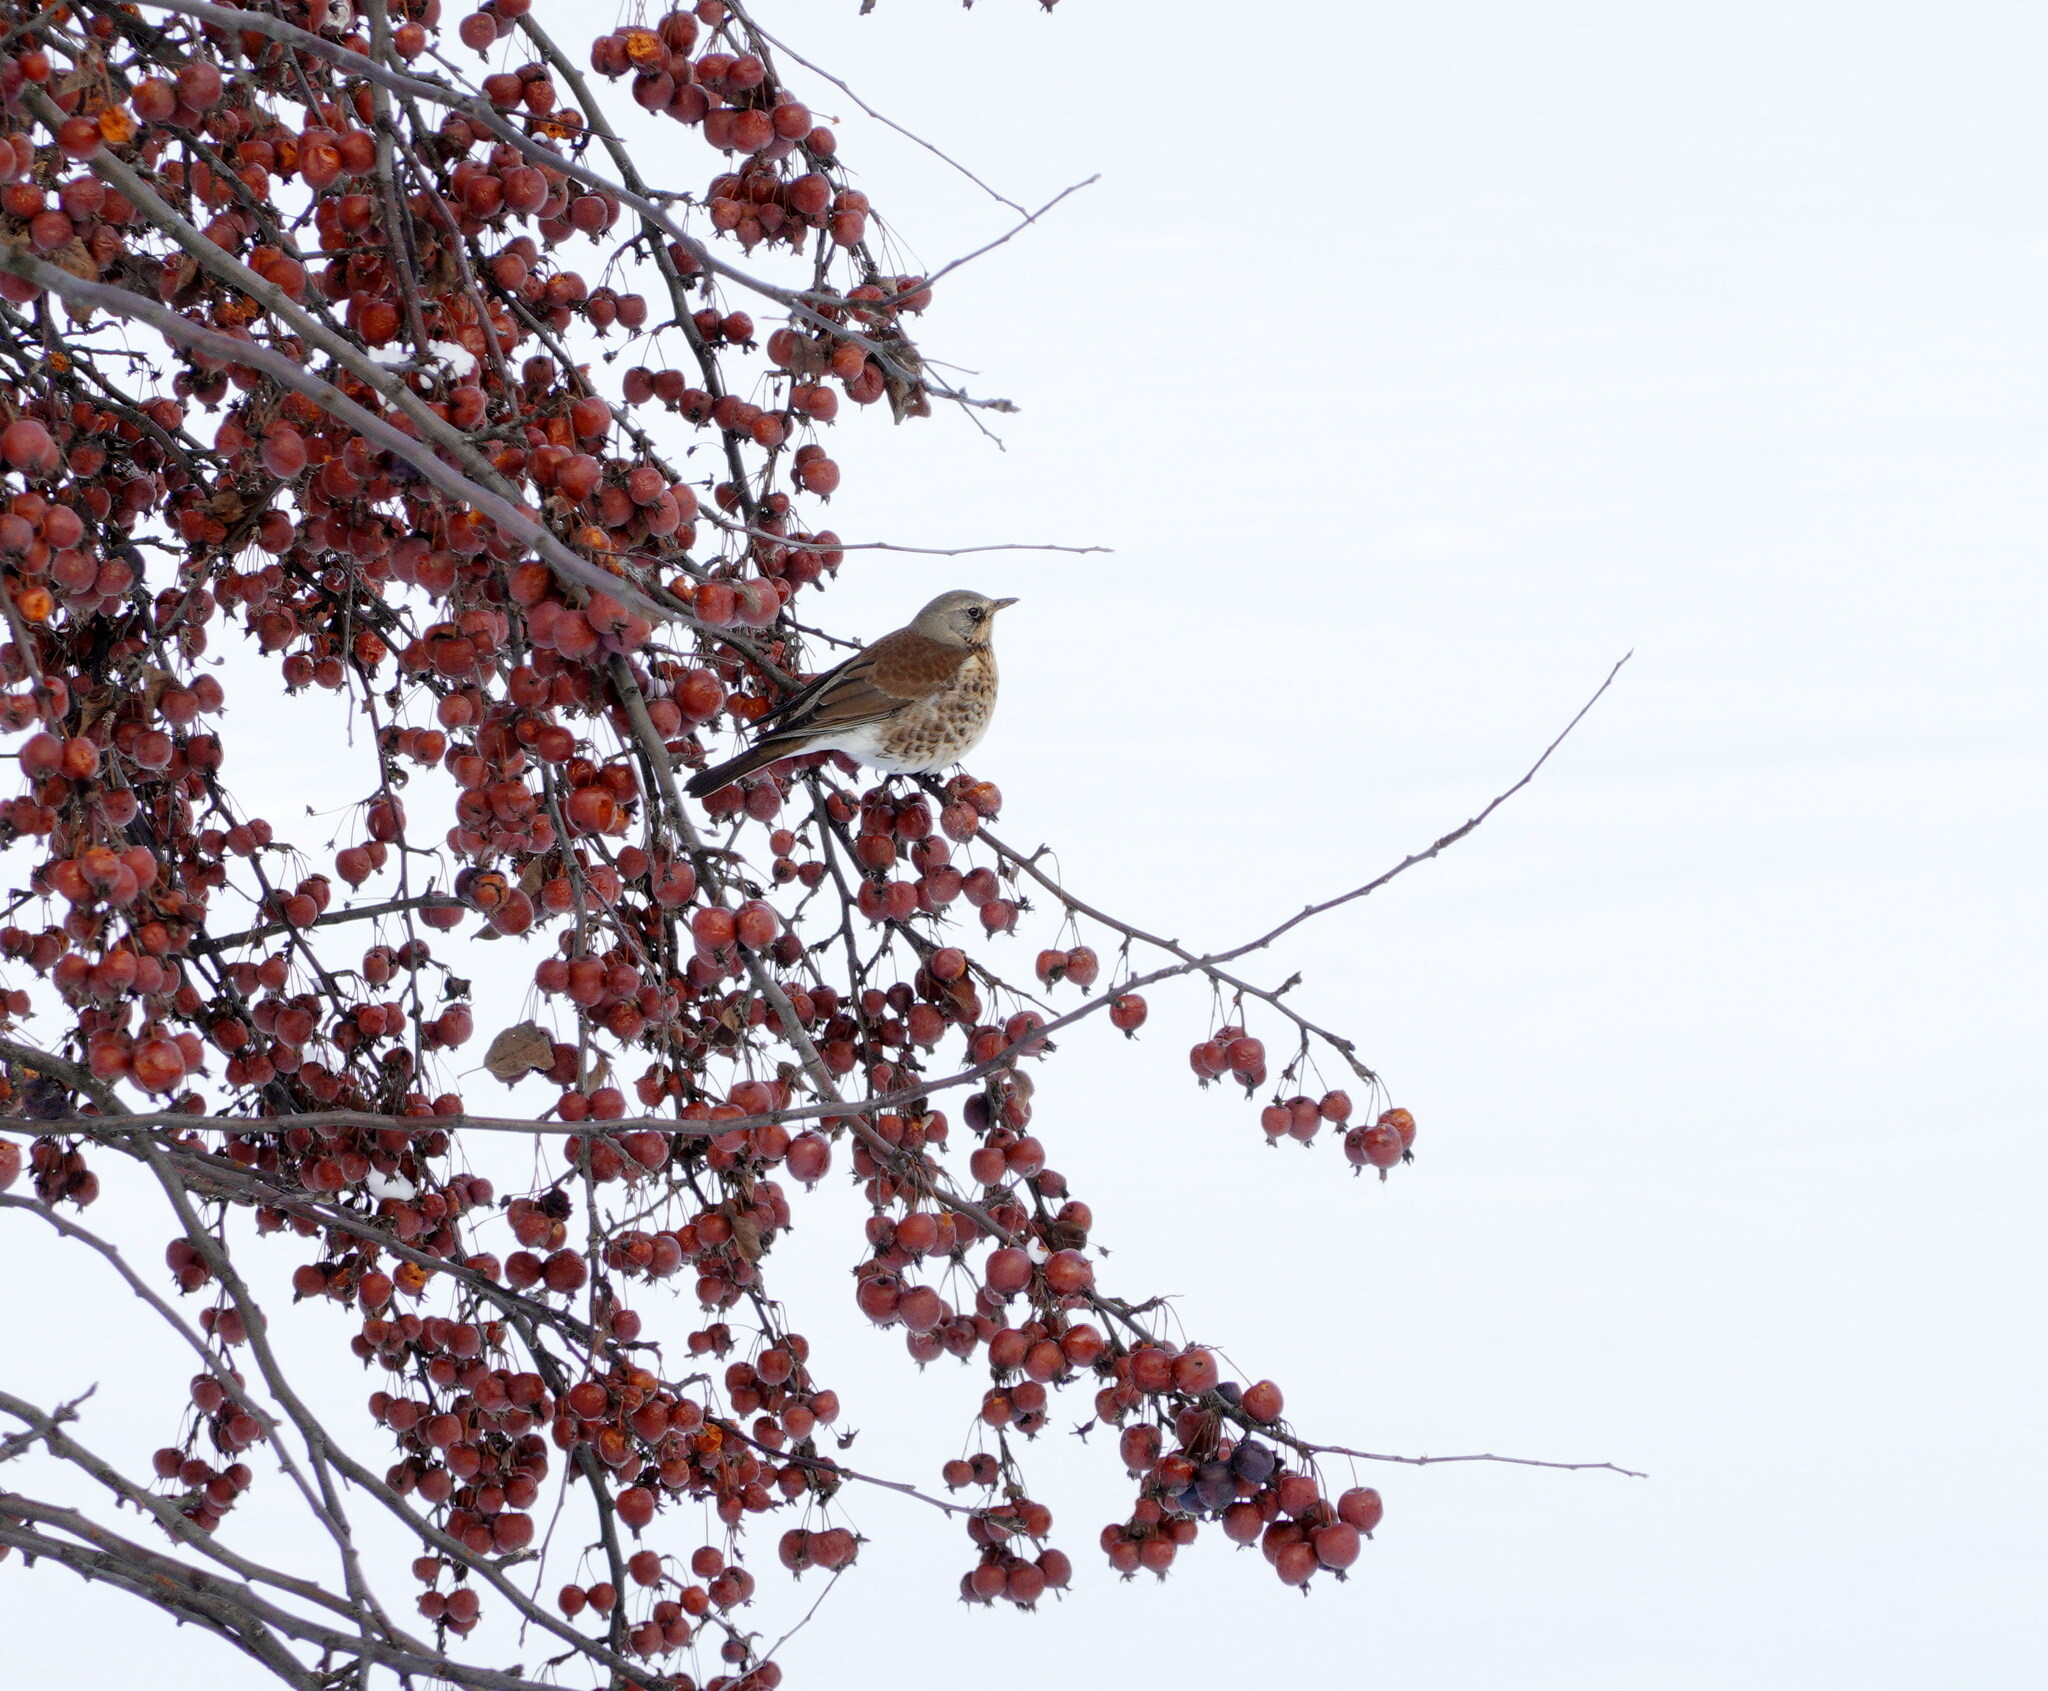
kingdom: Animalia
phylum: Chordata
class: Aves
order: Passeriformes
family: Turdidae
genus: Turdus
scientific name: Turdus pilaris
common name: Fieldfare
